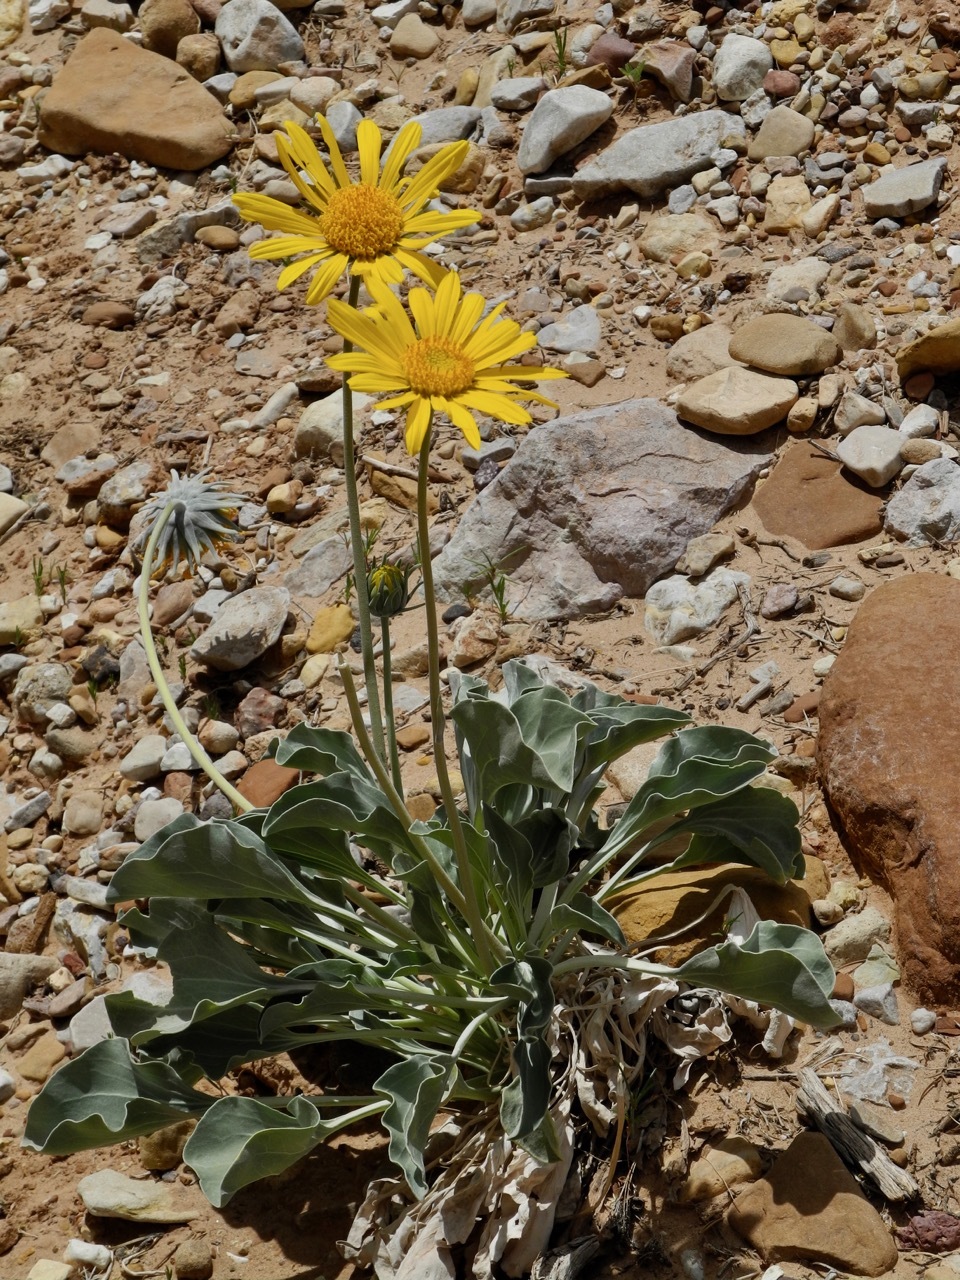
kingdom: Plantae
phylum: Tracheophyta
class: Magnoliopsida
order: Asterales
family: Asteraceae
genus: Enceliopsis
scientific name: Enceliopsis nudicaulis
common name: Naked-stem daisy
